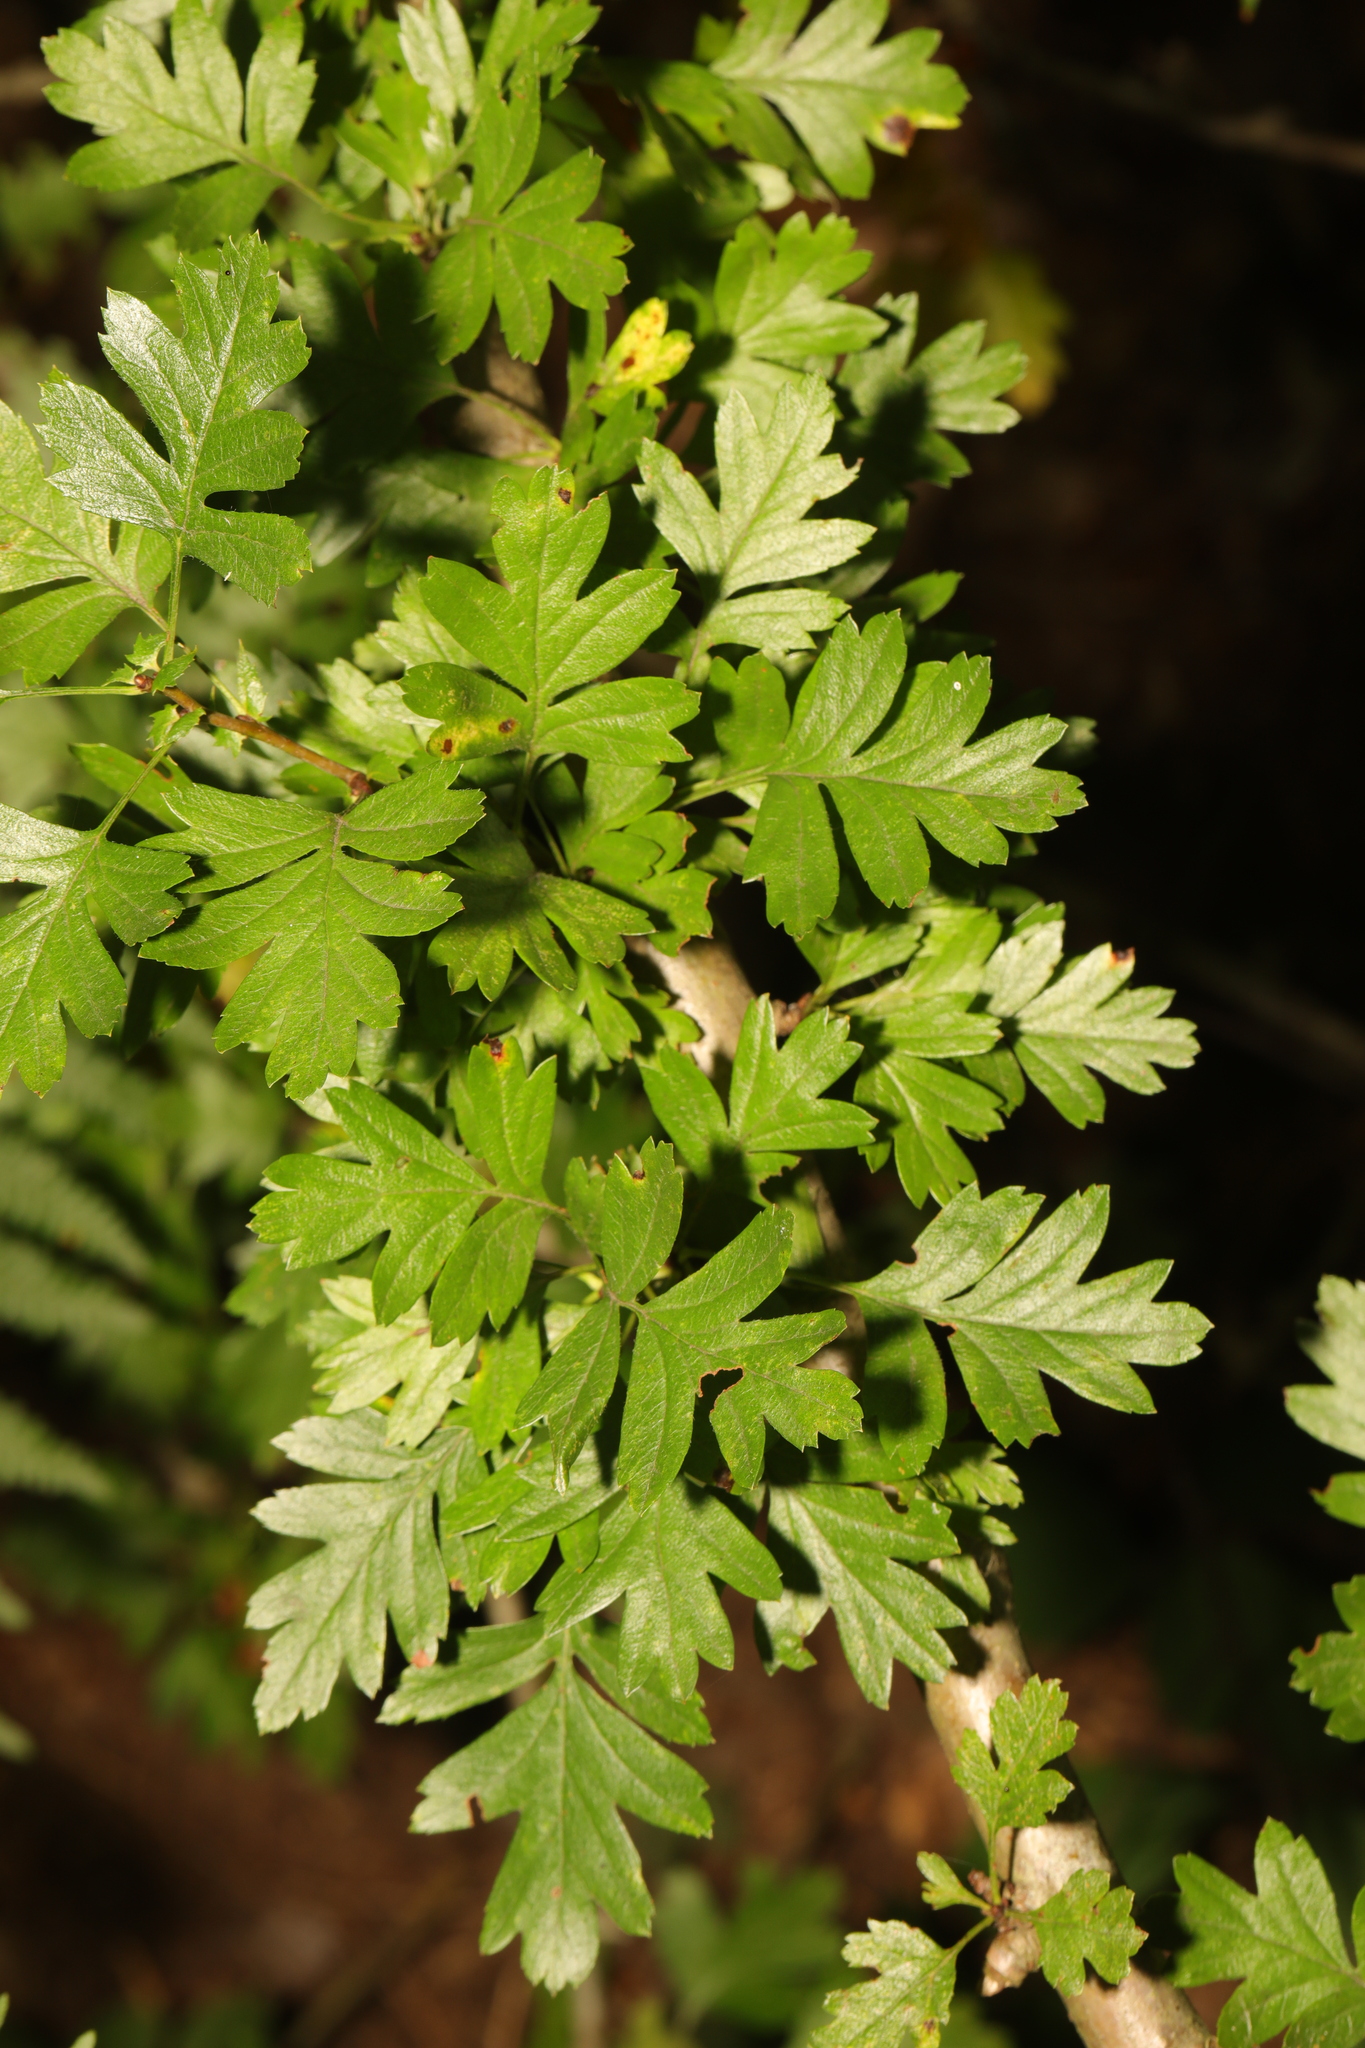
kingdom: Plantae
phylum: Tracheophyta
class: Magnoliopsida
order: Rosales
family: Rosaceae
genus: Crataegus
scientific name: Crataegus monogyna
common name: Hawthorn
